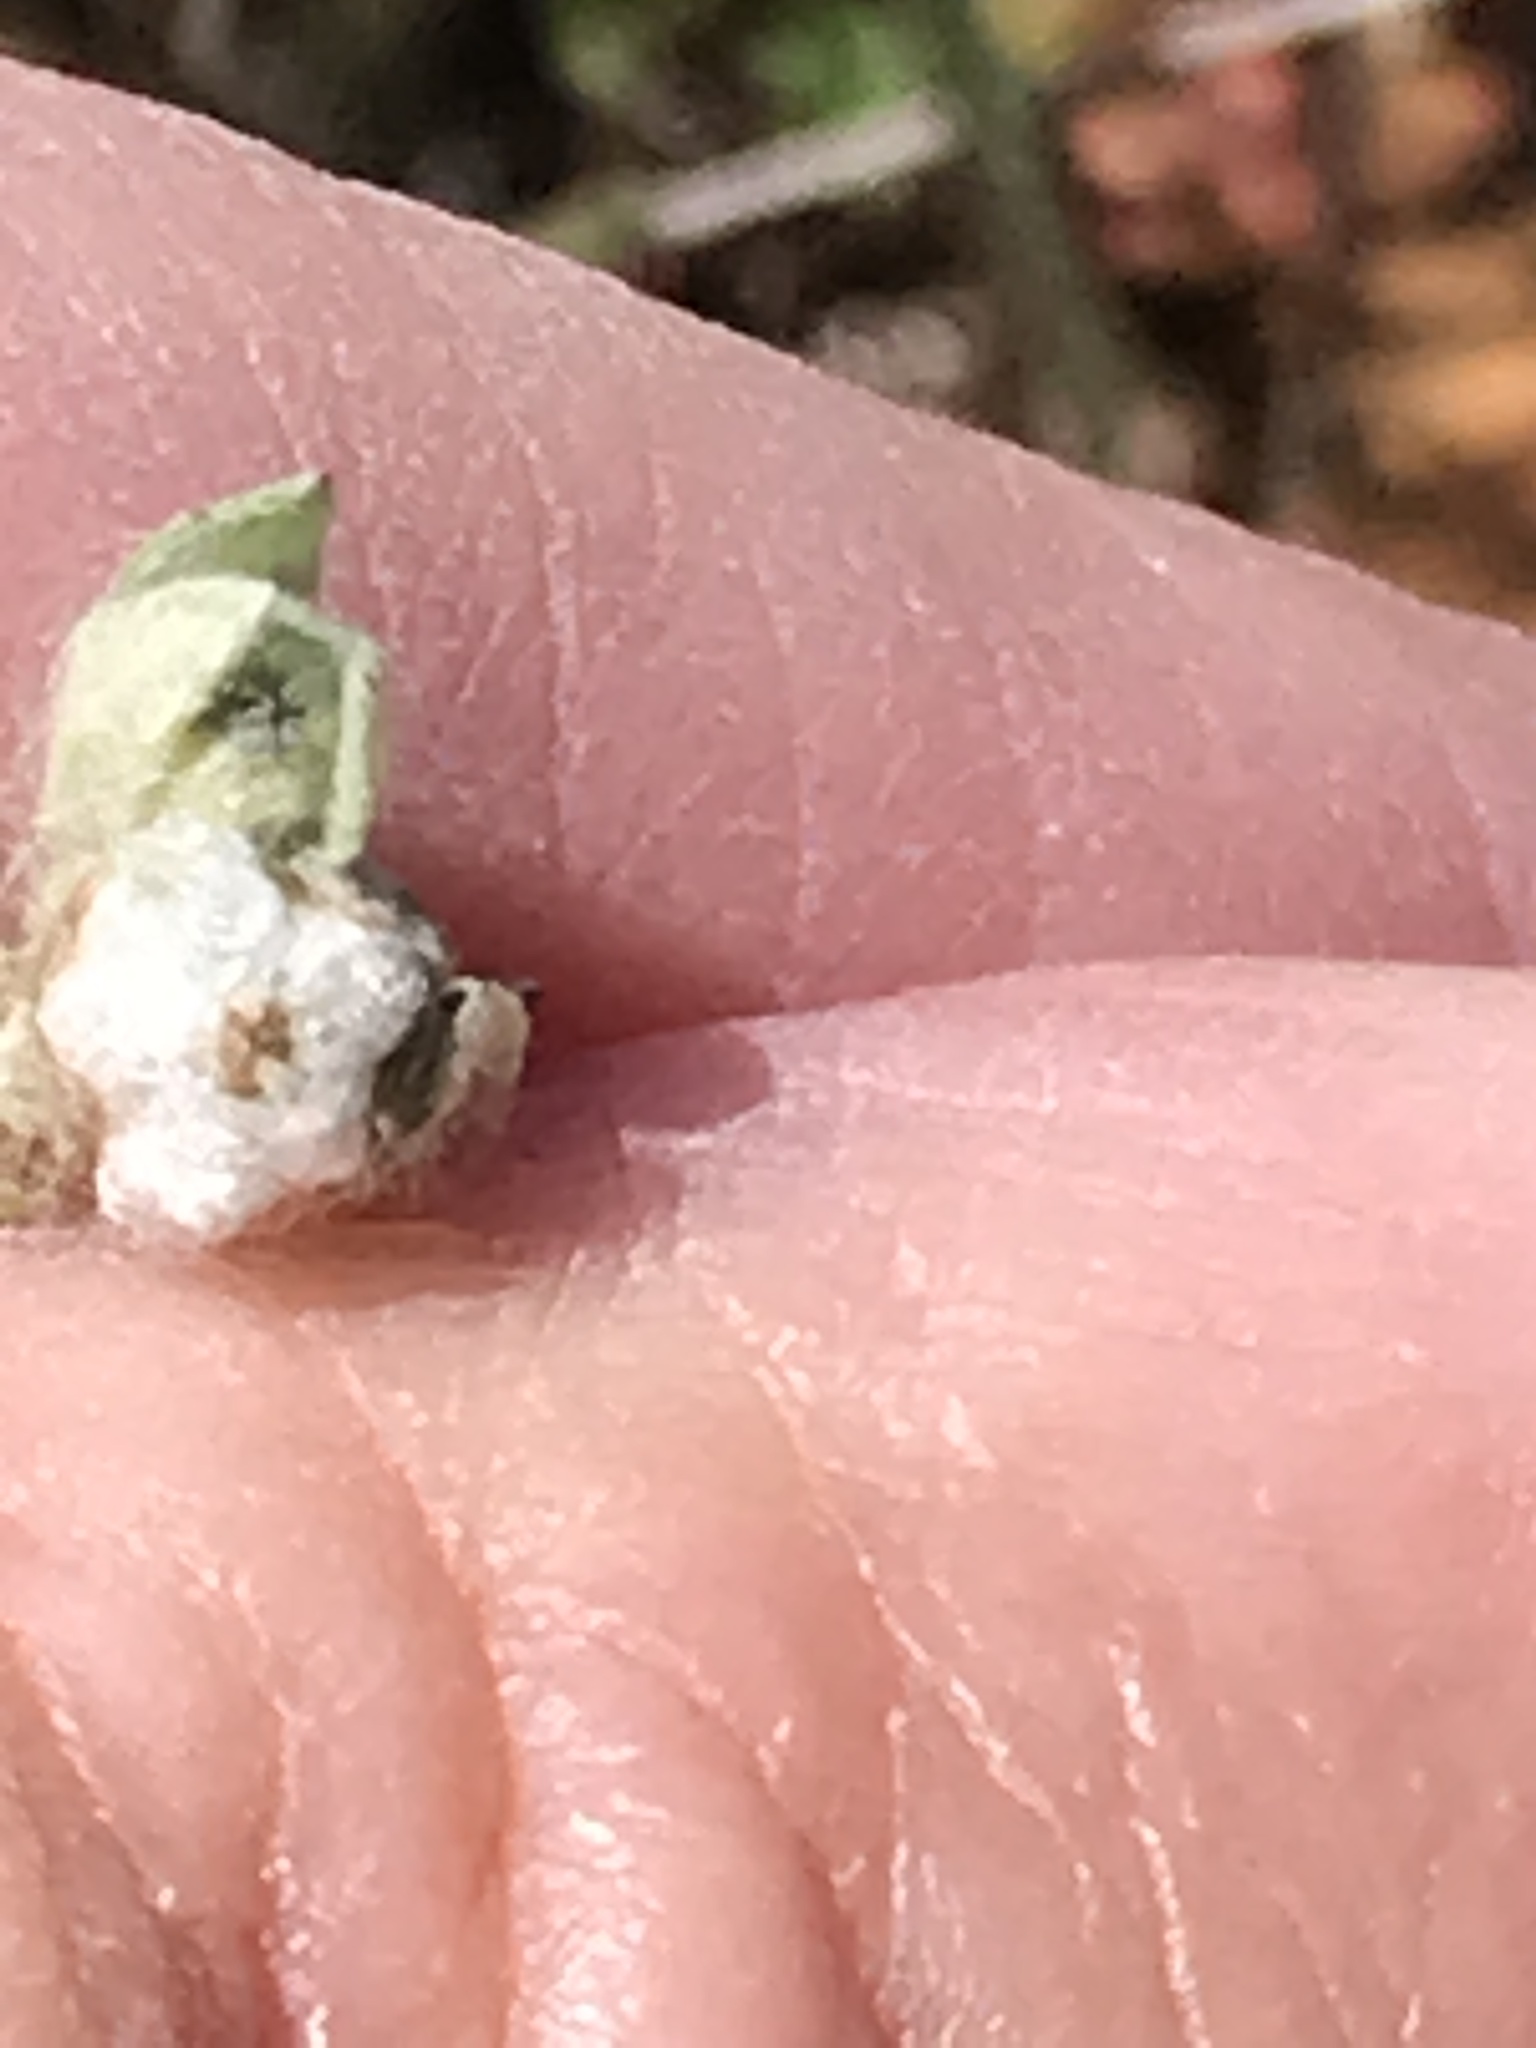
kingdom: Plantae
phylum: Tracheophyta
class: Magnoliopsida
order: Asterales
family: Asteraceae
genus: Bombycilaena
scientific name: Bombycilaena californica
